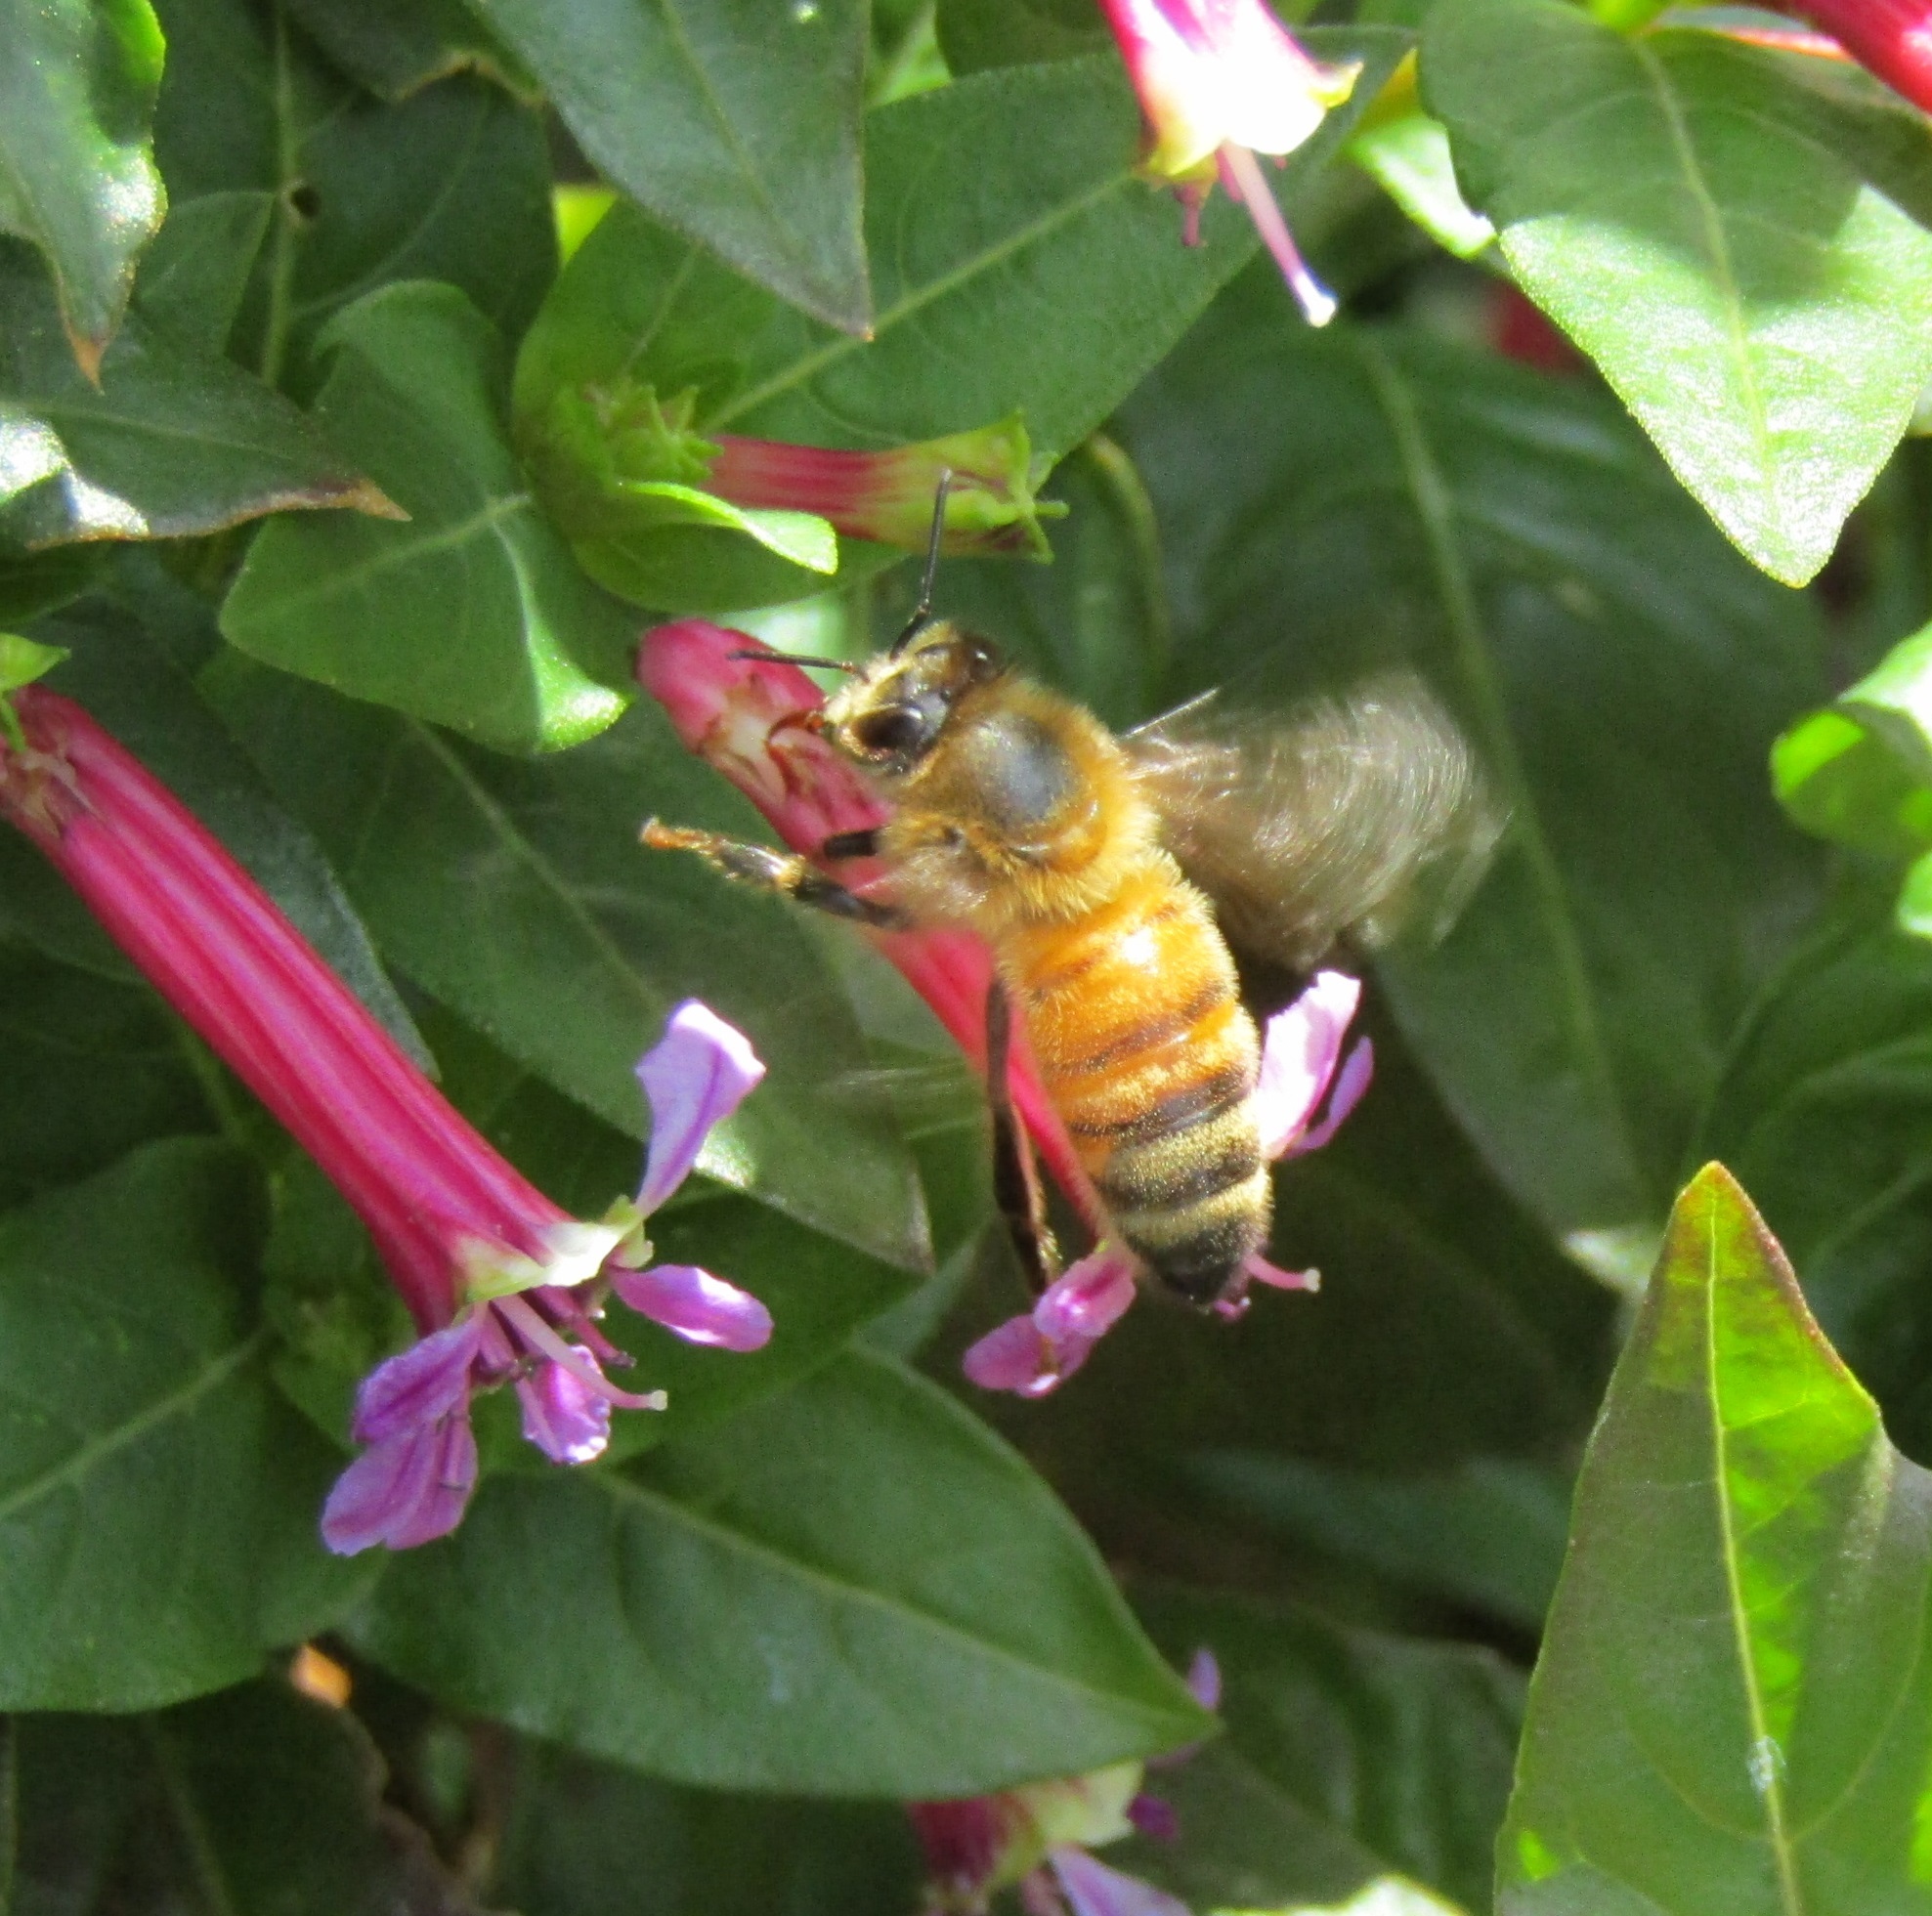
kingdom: Animalia
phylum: Arthropoda
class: Insecta
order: Hymenoptera
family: Apidae
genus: Apis
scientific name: Apis mellifera
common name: Honey bee
